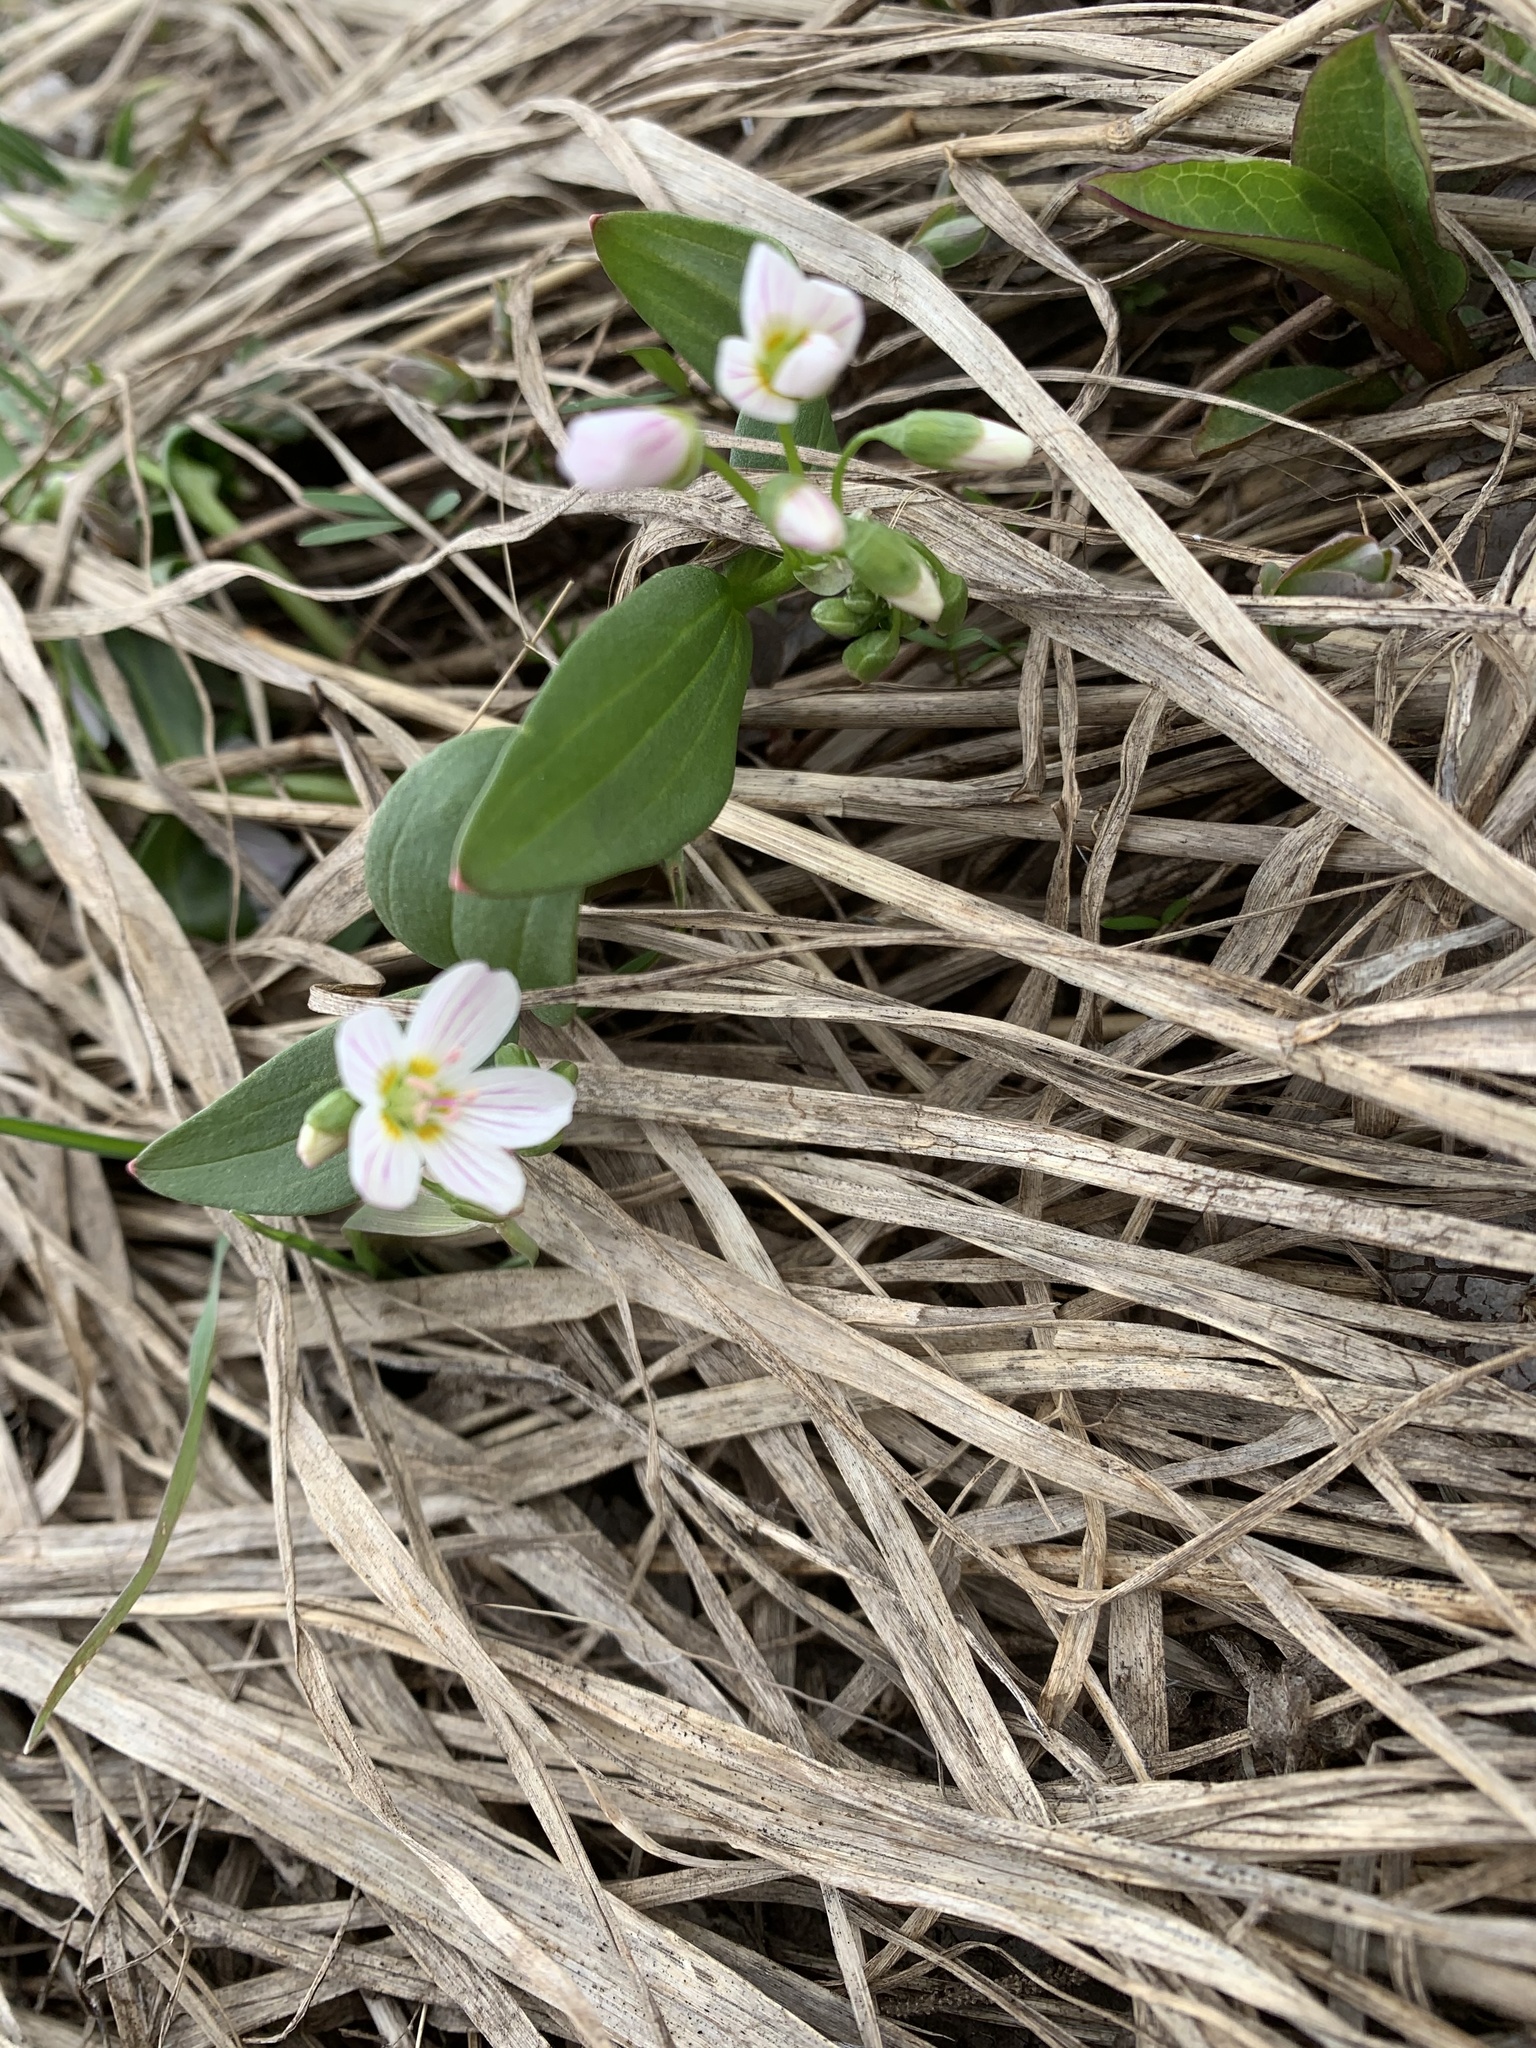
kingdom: Plantae
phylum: Tracheophyta
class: Magnoliopsida
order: Caryophyllales
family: Montiaceae
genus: Claytonia
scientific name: Claytonia lanceolata
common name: Western spring-beauty
